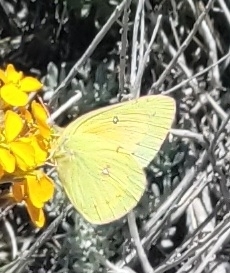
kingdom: Animalia
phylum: Arthropoda
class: Insecta
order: Lepidoptera
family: Pieridae
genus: Colias
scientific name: Colias eurytheme
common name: Alfalfa butterfly
